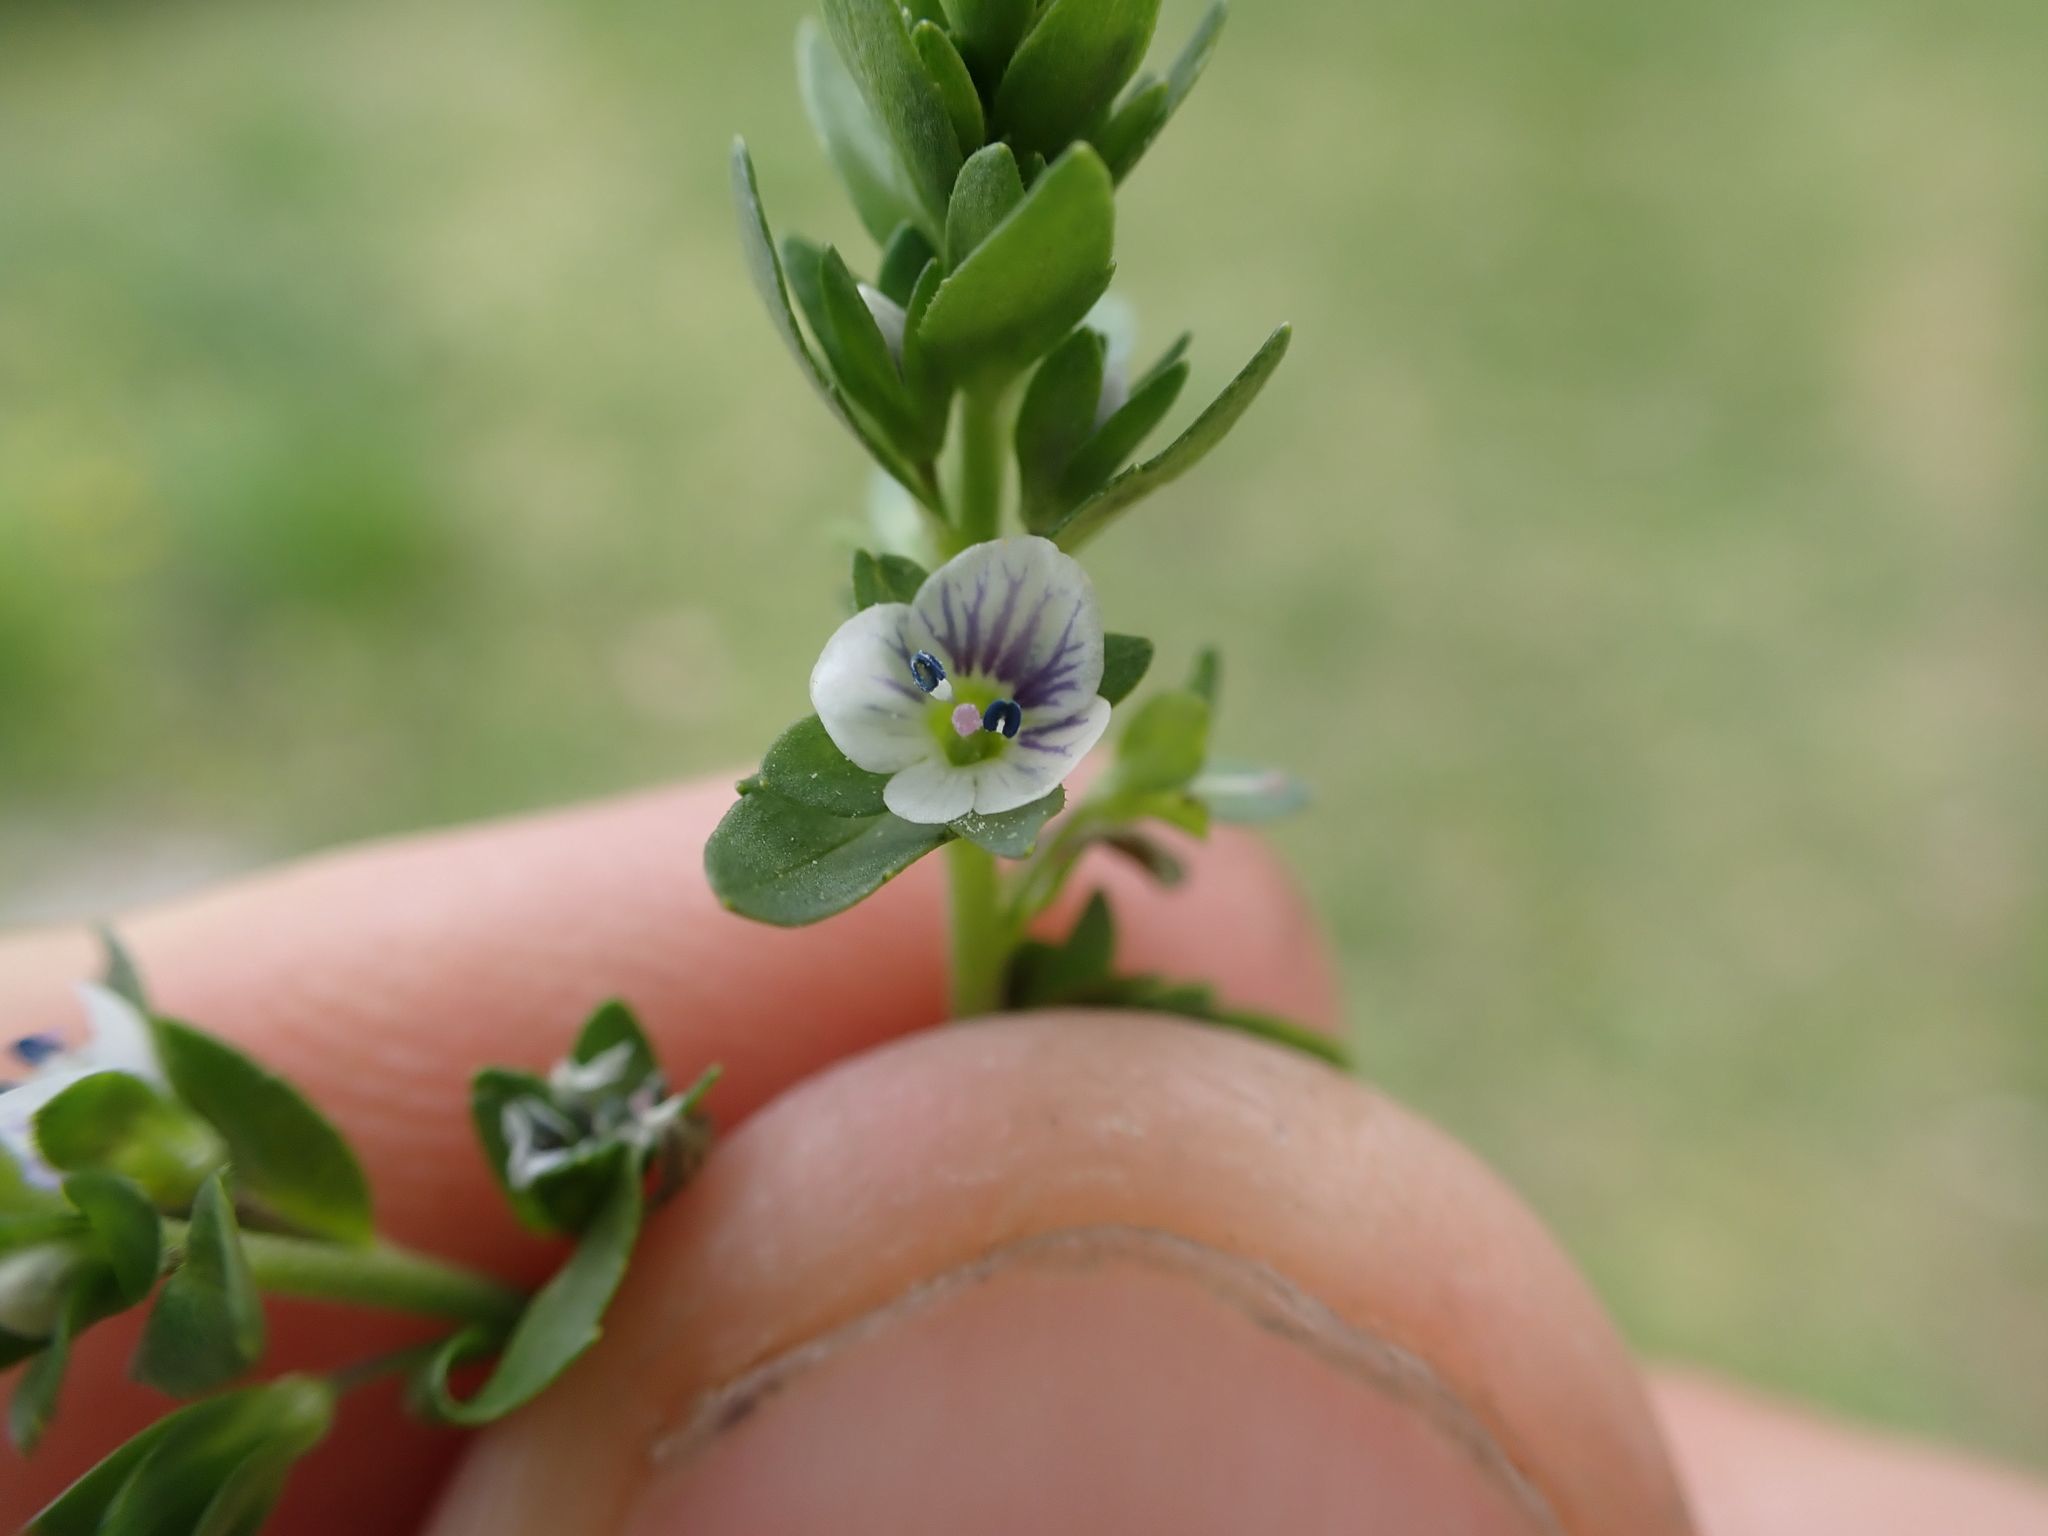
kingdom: Plantae
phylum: Tracheophyta
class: Magnoliopsida
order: Lamiales
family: Plantaginaceae
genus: Veronica
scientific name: Veronica serpyllifolia
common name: Thyme-leaved speedwell
